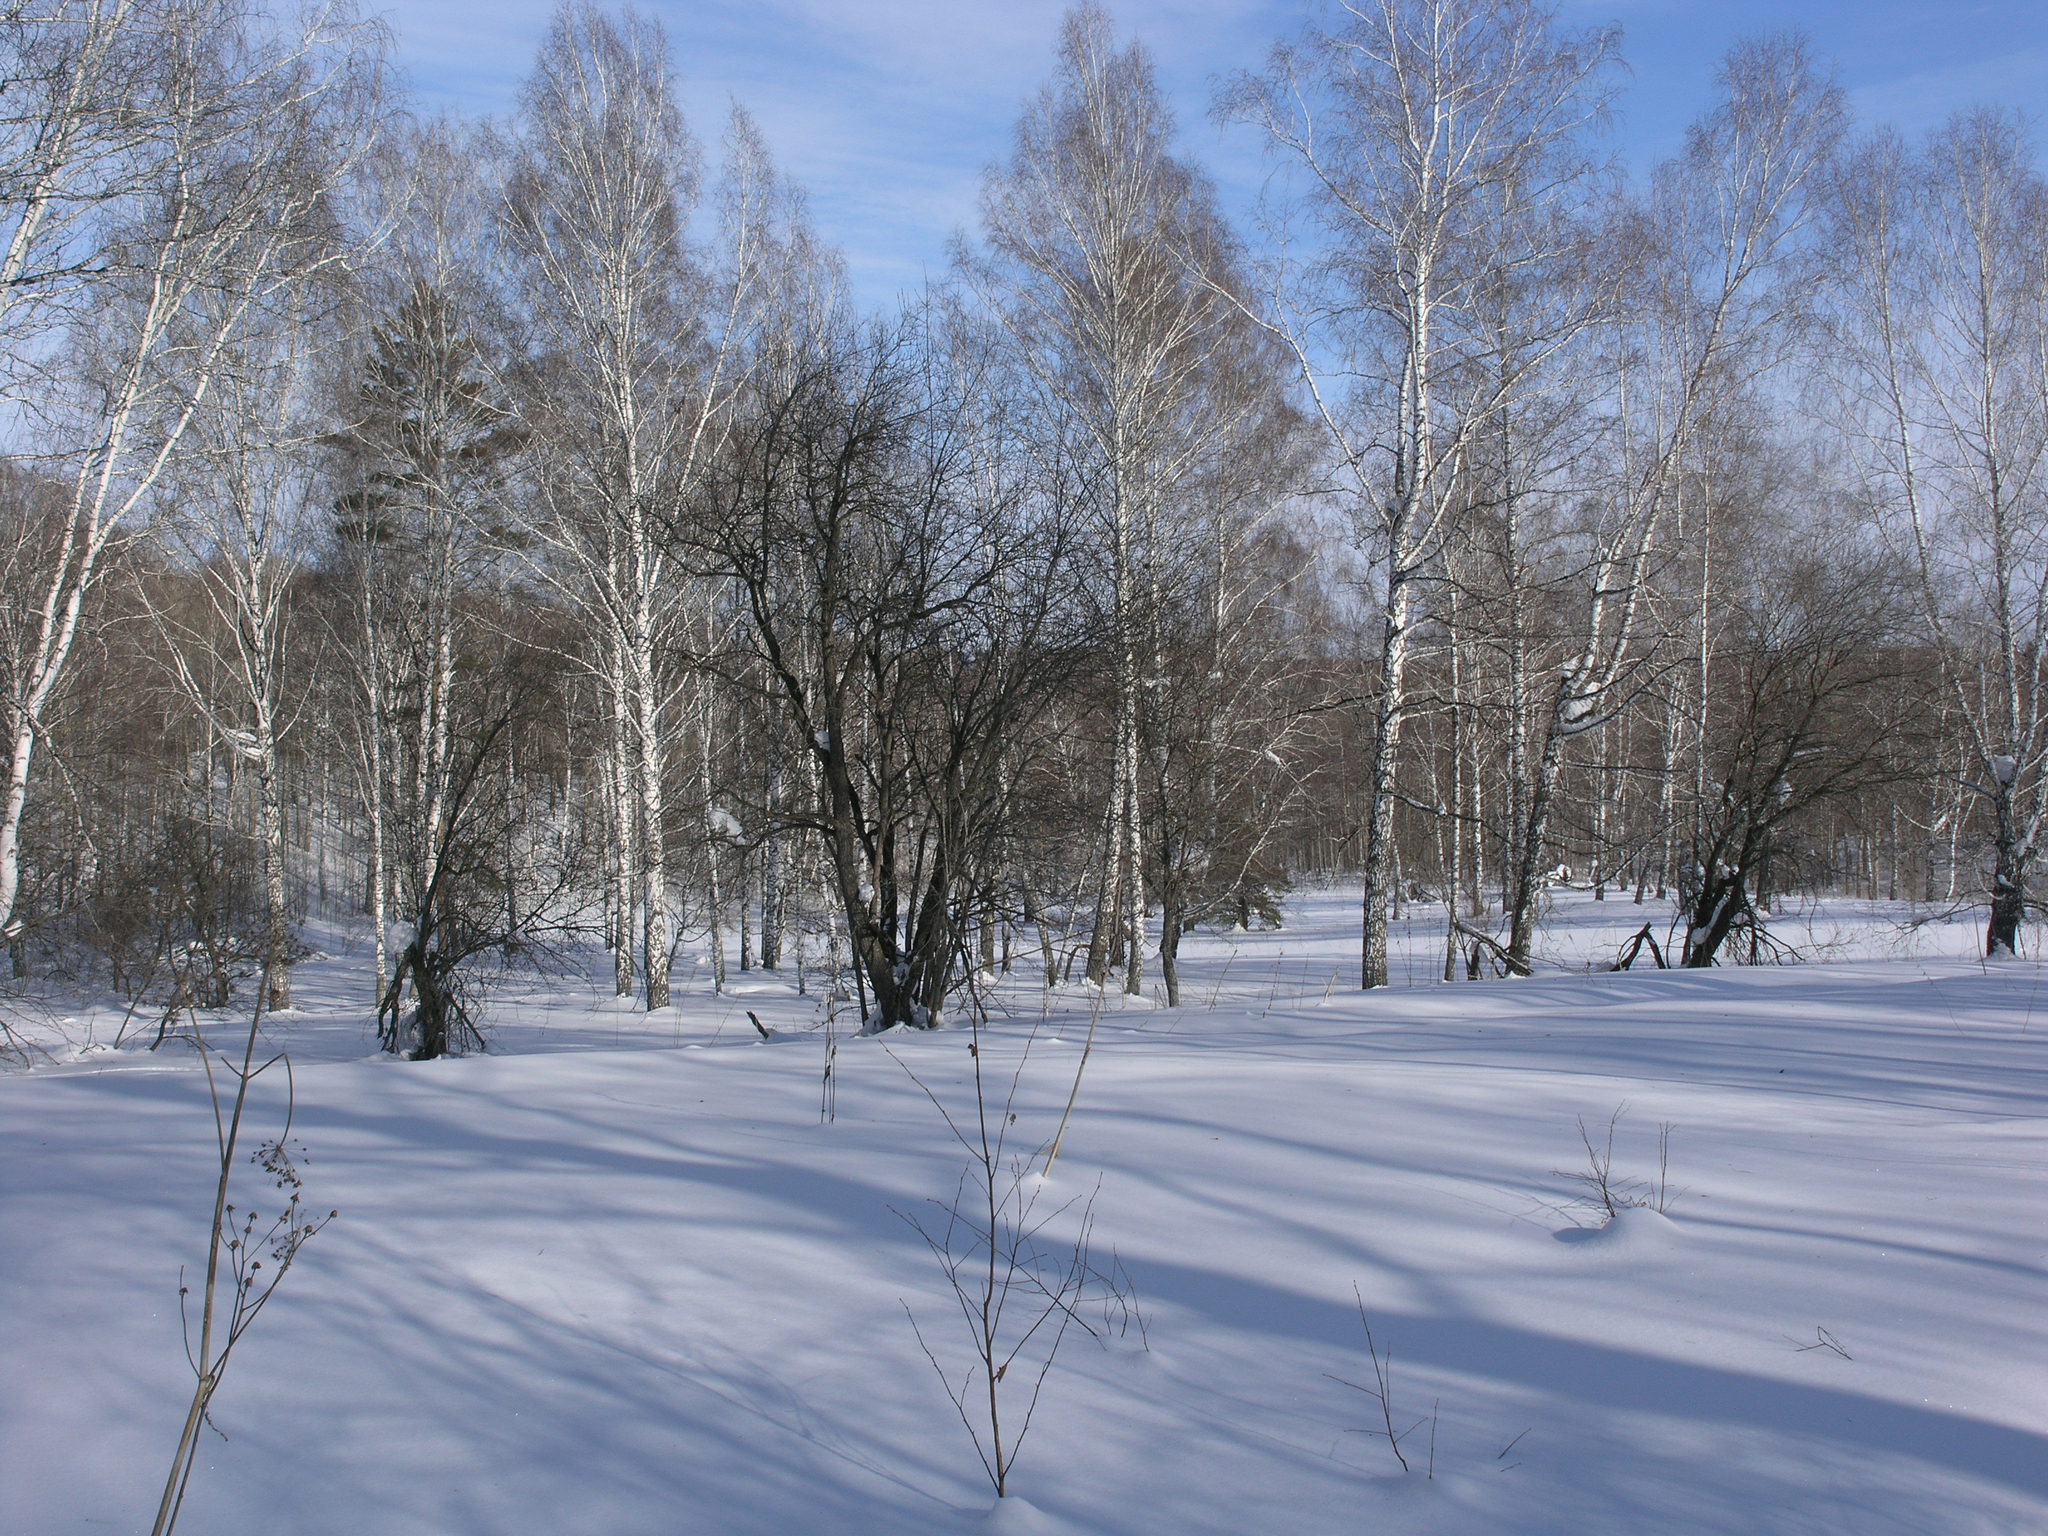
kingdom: Plantae
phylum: Tracheophyta
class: Magnoliopsida
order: Fagales
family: Betulaceae
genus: Betula
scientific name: Betula pendula
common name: Silver birch
